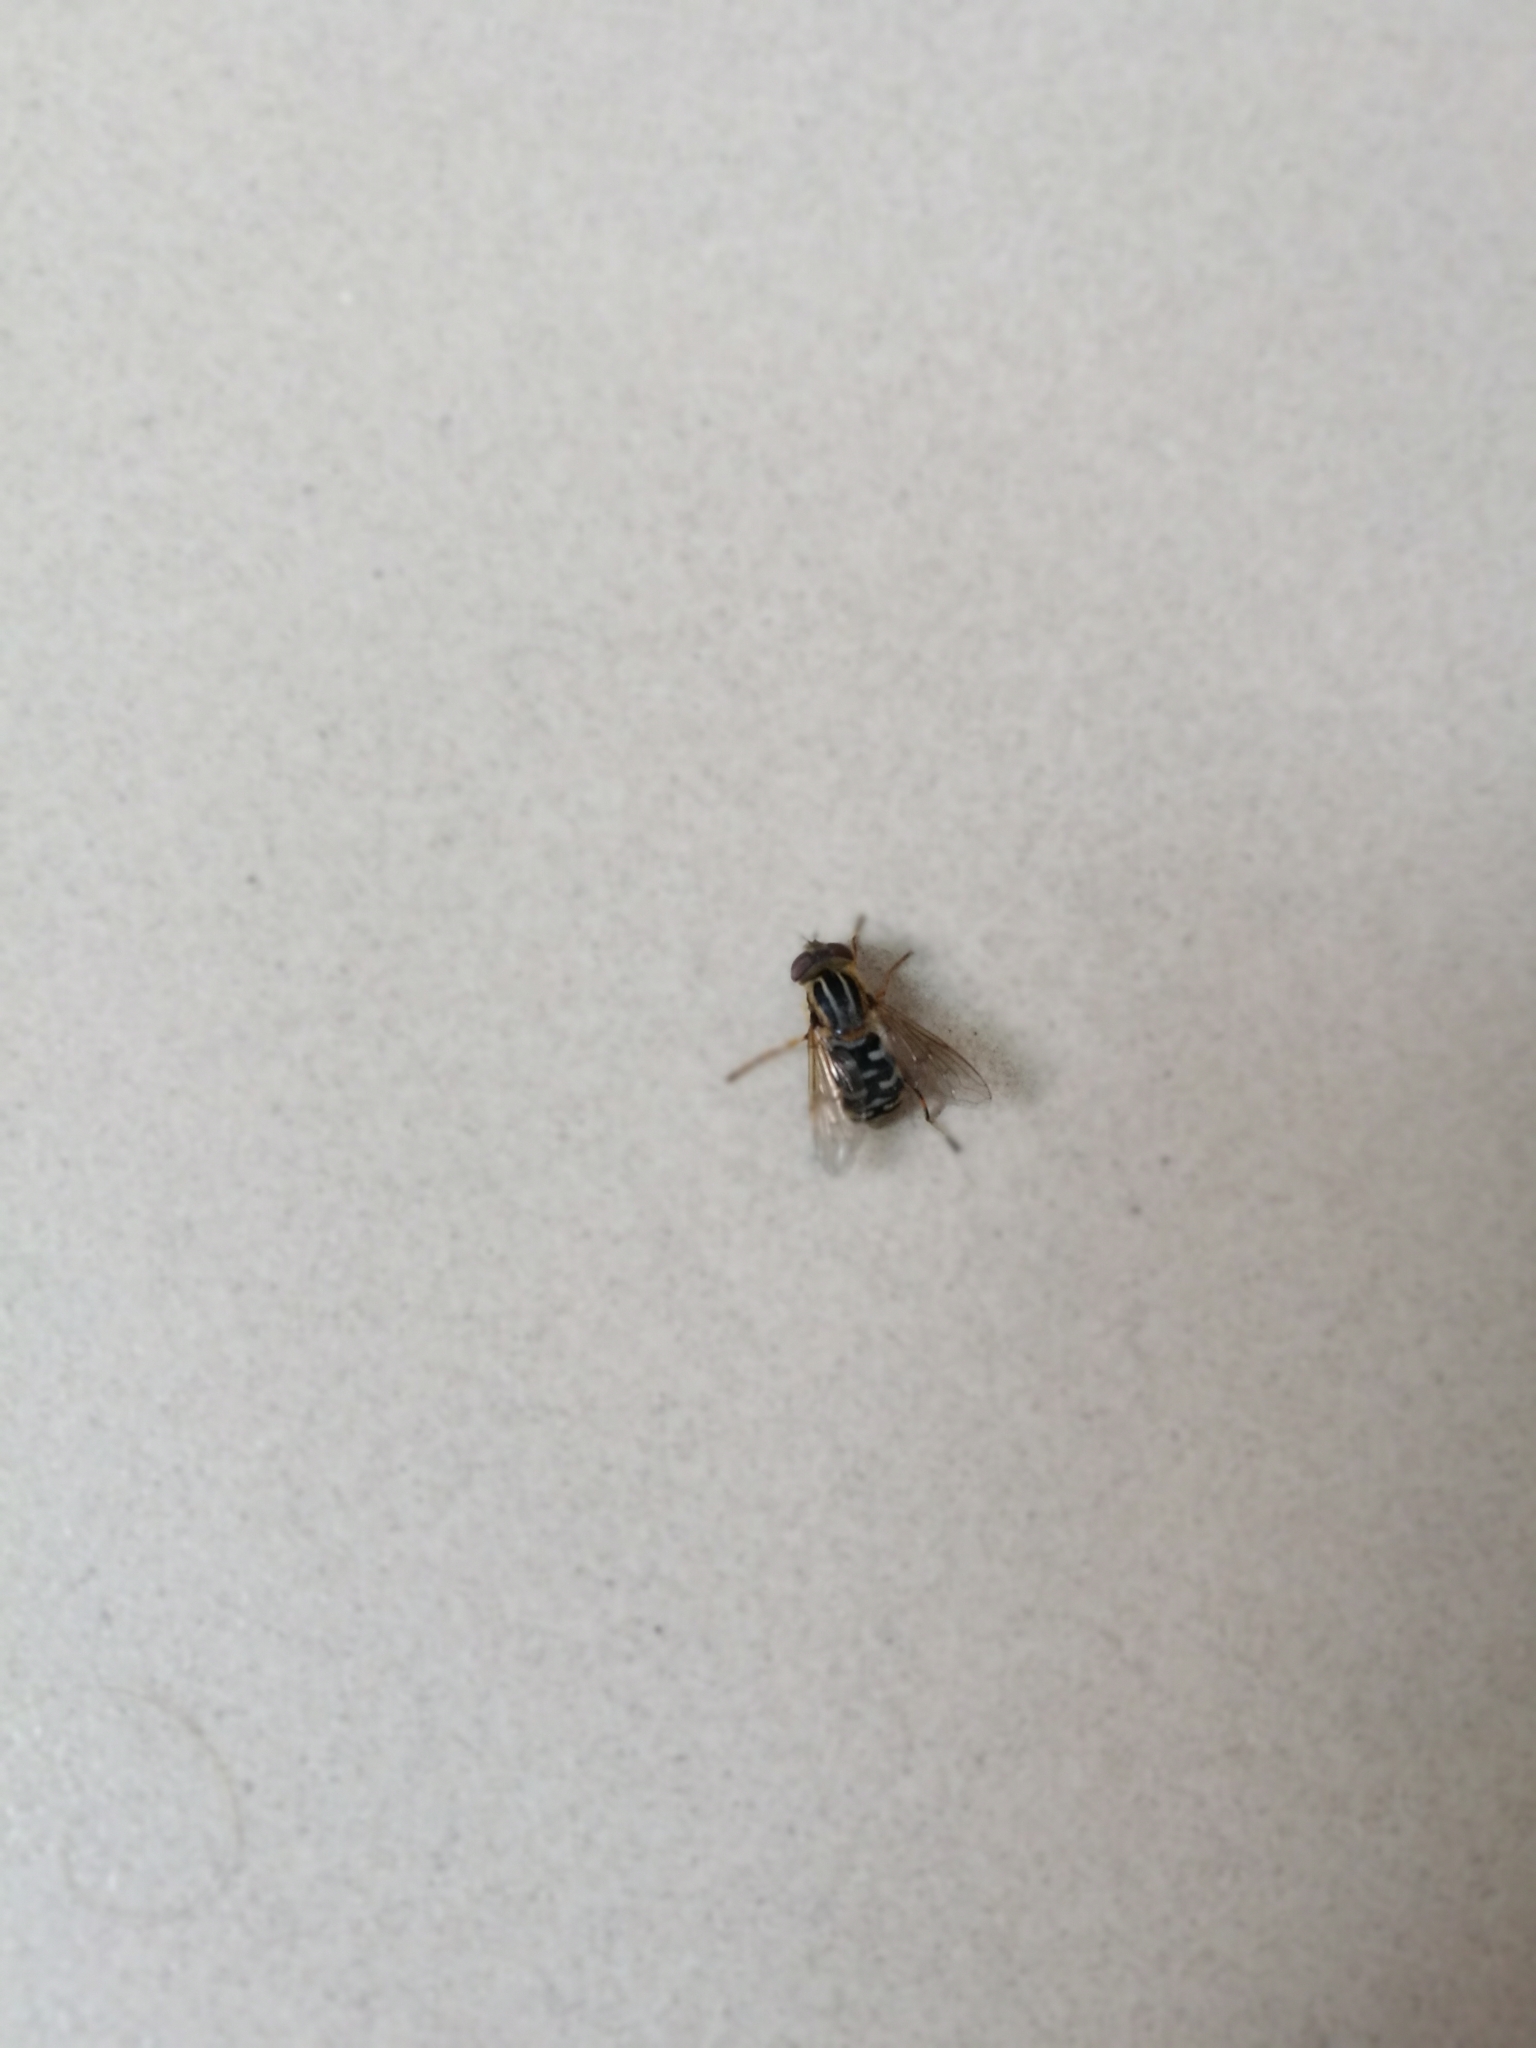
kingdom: Animalia
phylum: Arthropoda
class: Insecta
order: Diptera
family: Syrphidae
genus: Eurimyia
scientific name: Eurimyia lineatus
